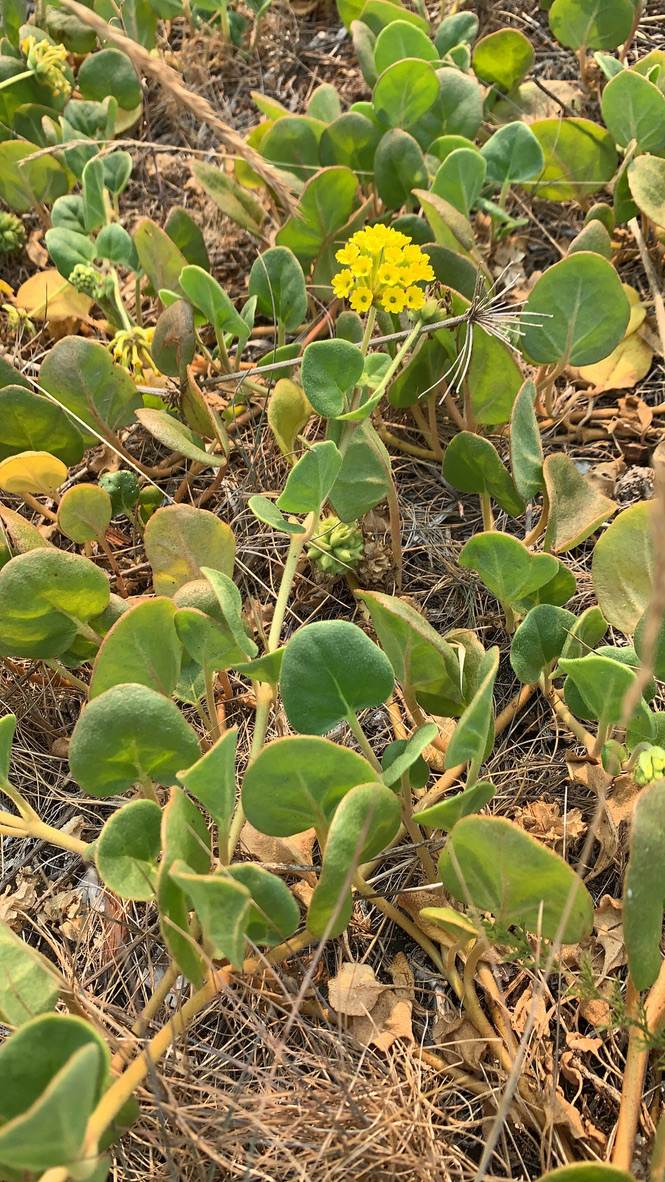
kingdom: Plantae
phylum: Tracheophyta
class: Magnoliopsida
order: Caryophyllales
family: Nyctaginaceae
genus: Abronia
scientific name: Abronia latifolia
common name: Yellow sand-verbena
